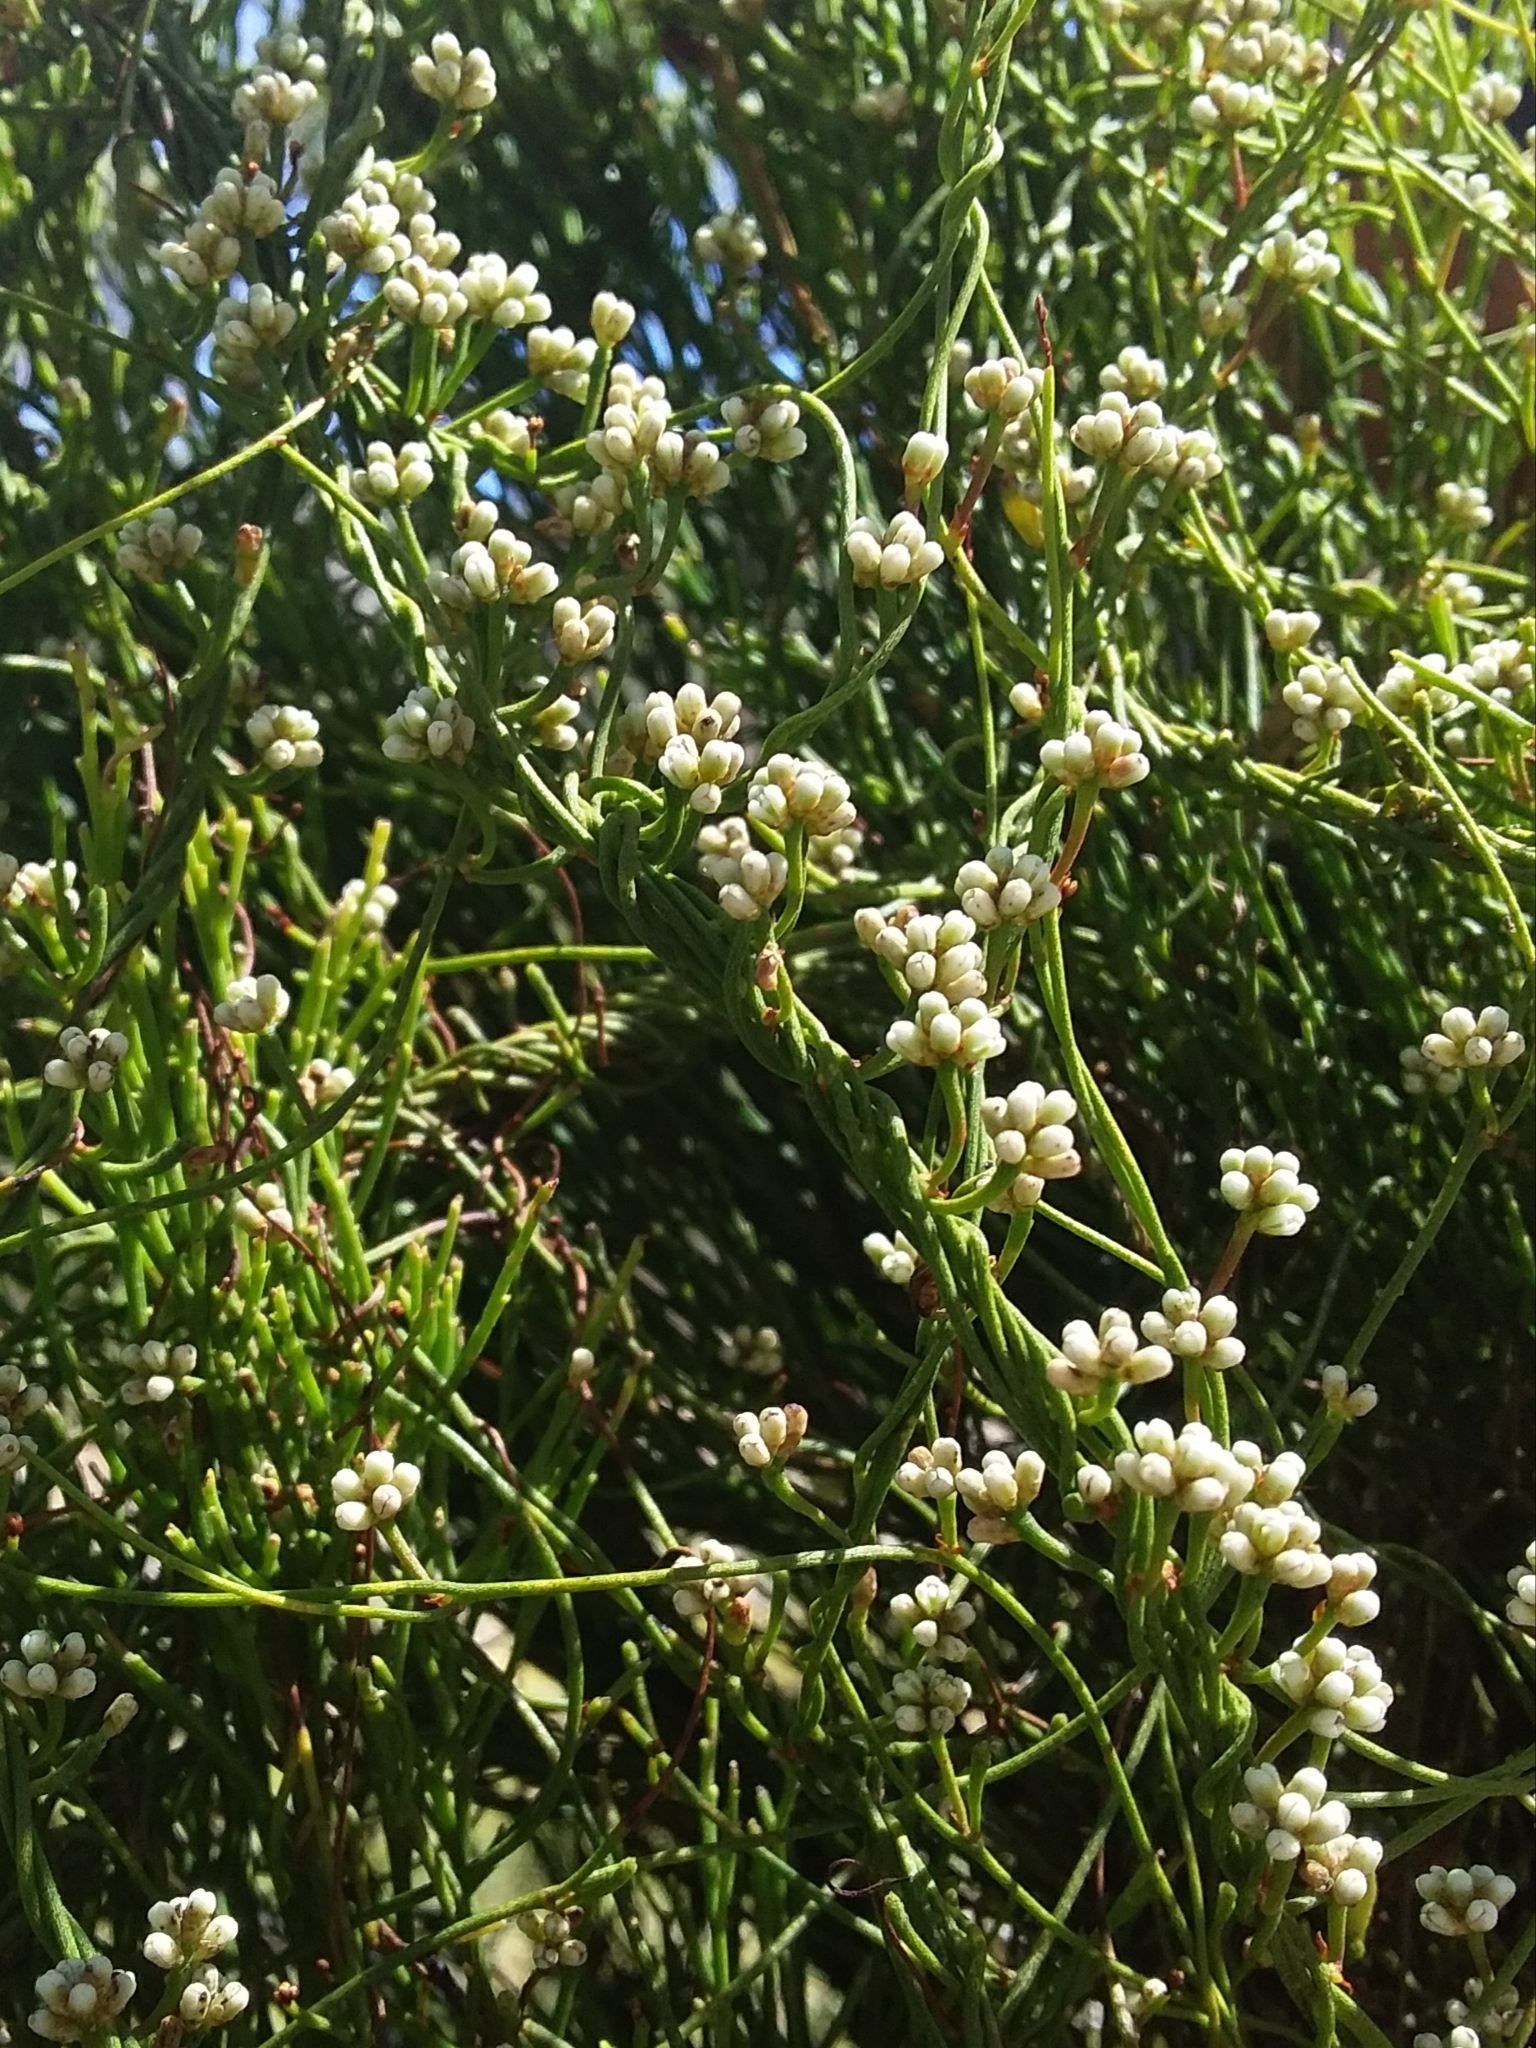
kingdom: Plantae
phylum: Tracheophyta
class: Magnoliopsida
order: Laurales
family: Lauraceae
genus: Cassytha
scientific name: Cassytha glabella
